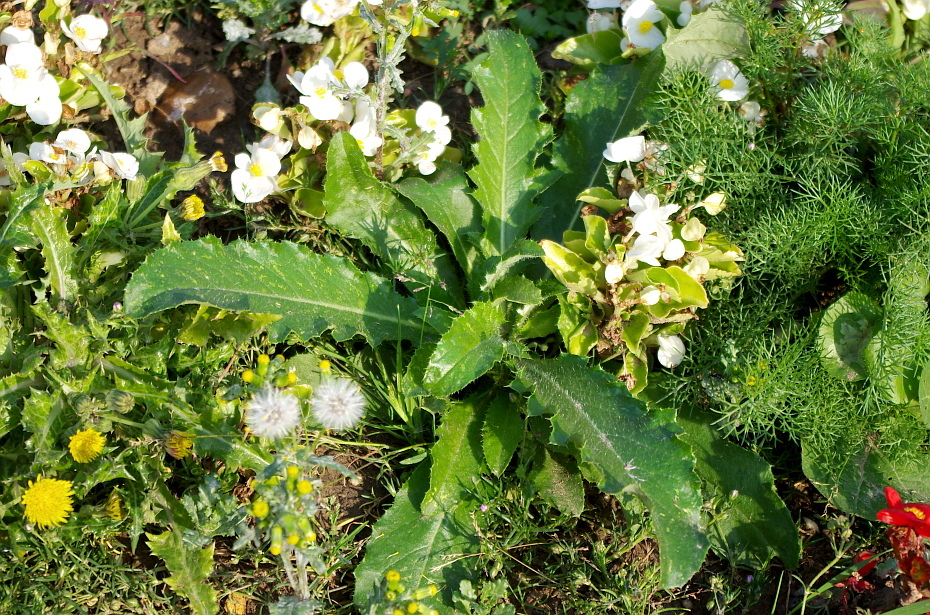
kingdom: Plantae
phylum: Tracheophyta
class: Magnoliopsida
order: Asterales
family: Asteraceae
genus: Cirsium
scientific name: Cirsium arvense
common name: Creeping thistle
